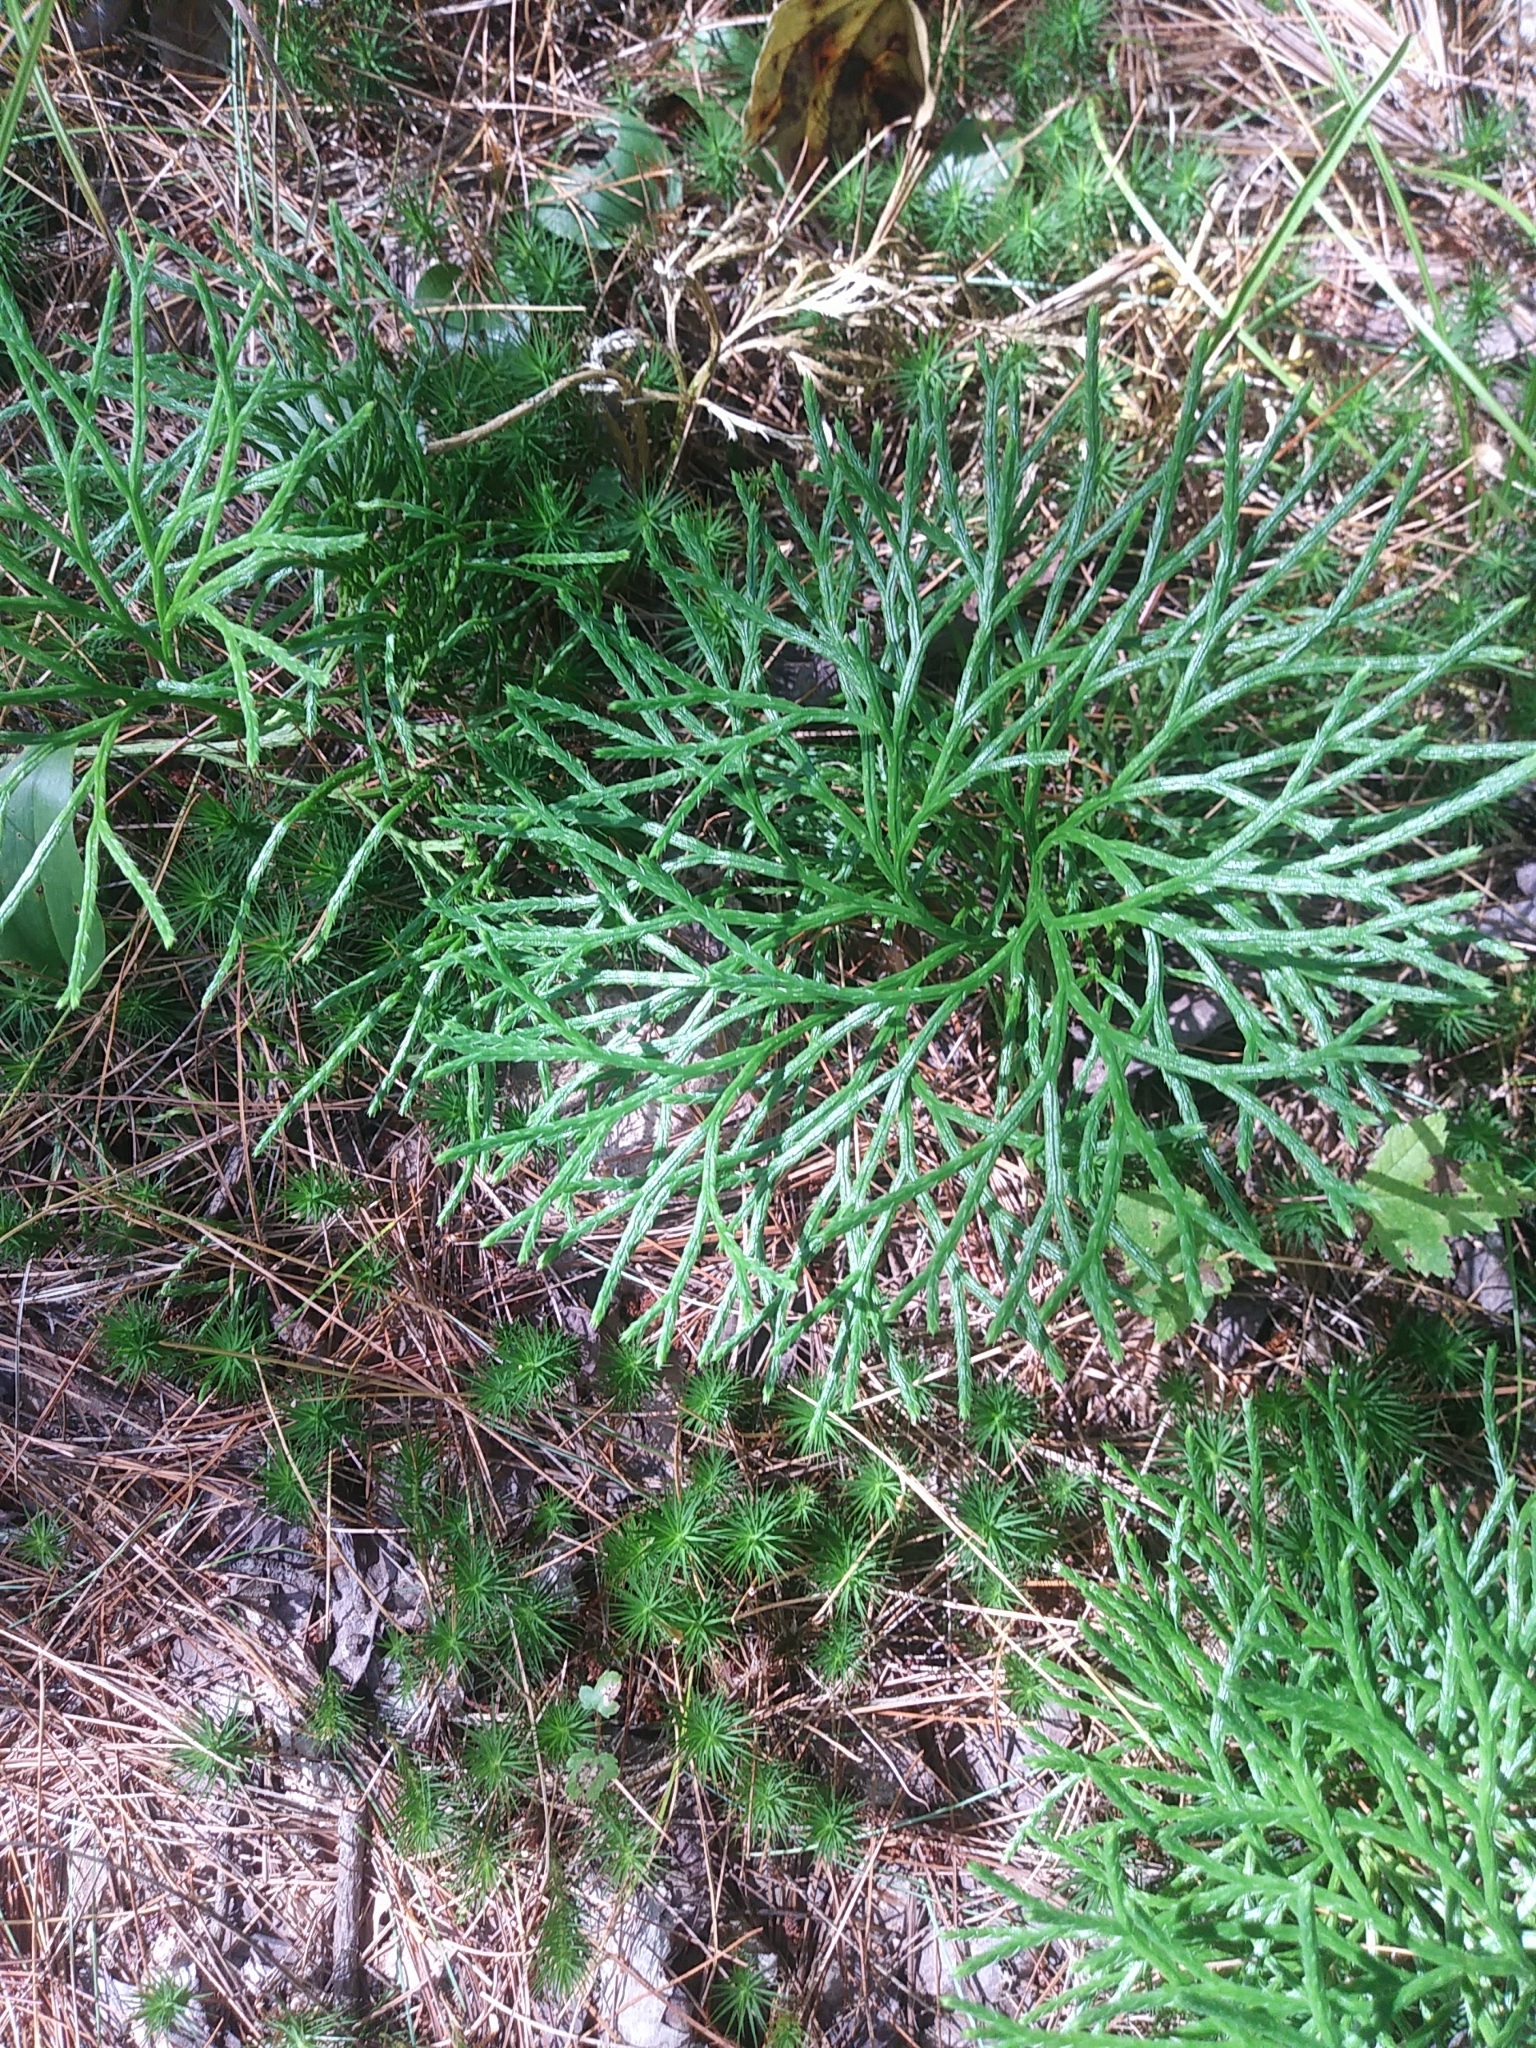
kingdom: Plantae
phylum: Tracheophyta
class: Lycopodiopsida
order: Lycopodiales
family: Lycopodiaceae
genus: Diphasiastrum
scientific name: Diphasiastrum digitatum
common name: Southern running-pine
